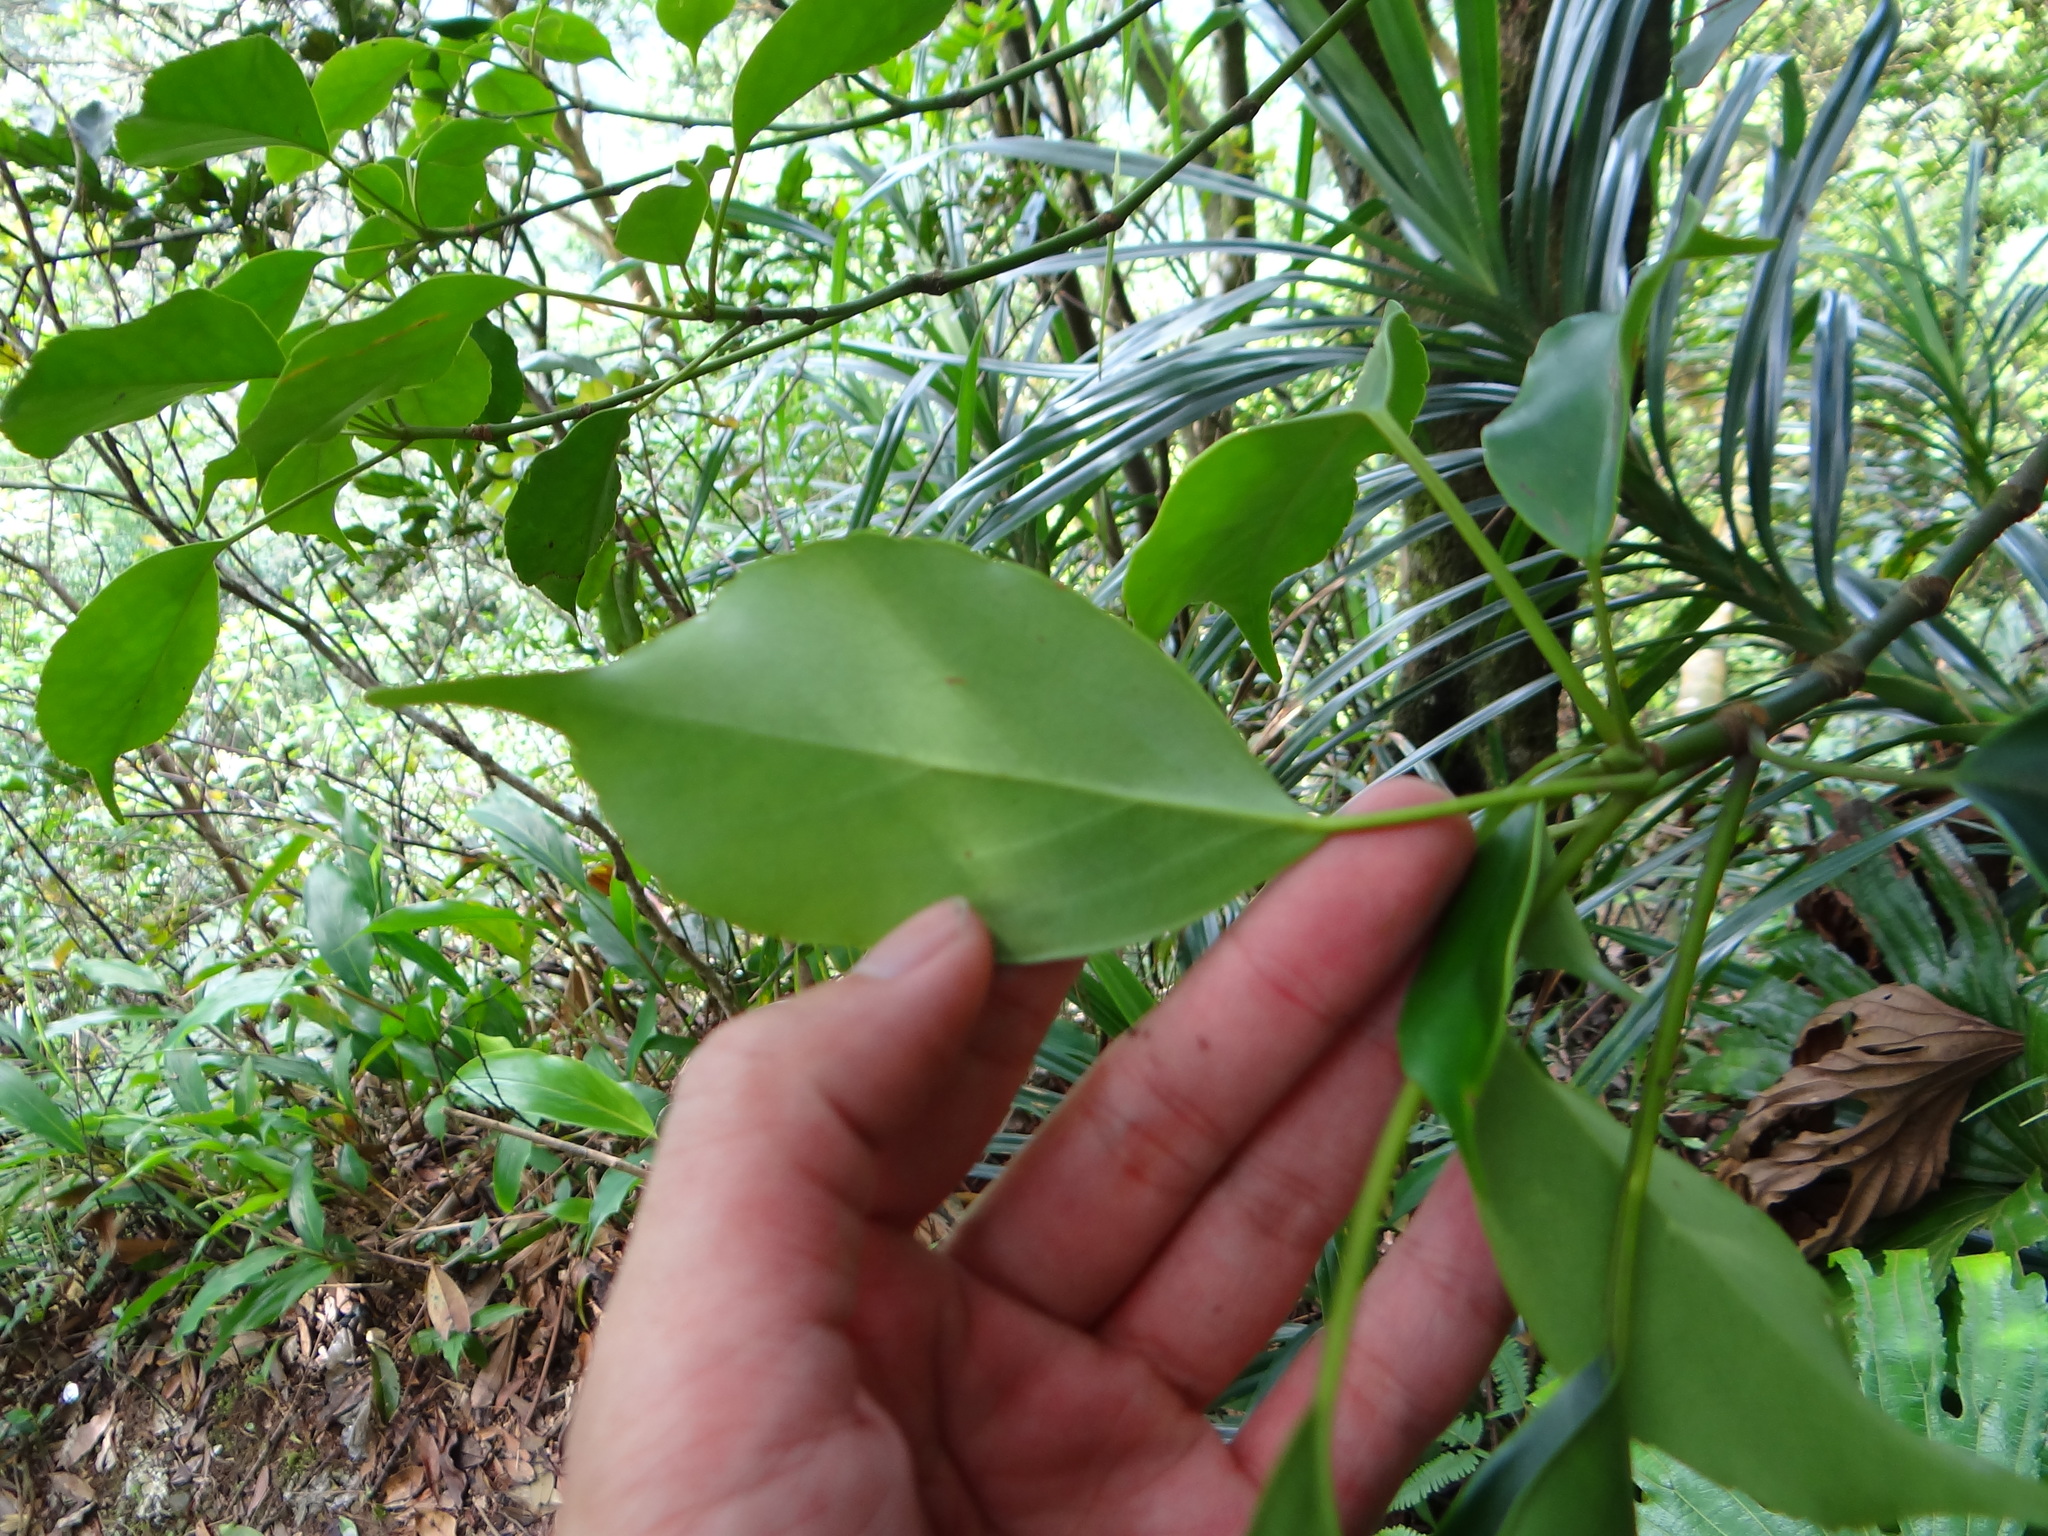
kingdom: Plantae
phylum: Tracheophyta
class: Magnoliopsida
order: Trochodendrales
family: Trochodendraceae
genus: Trochodendron
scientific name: Trochodendron aralioides
